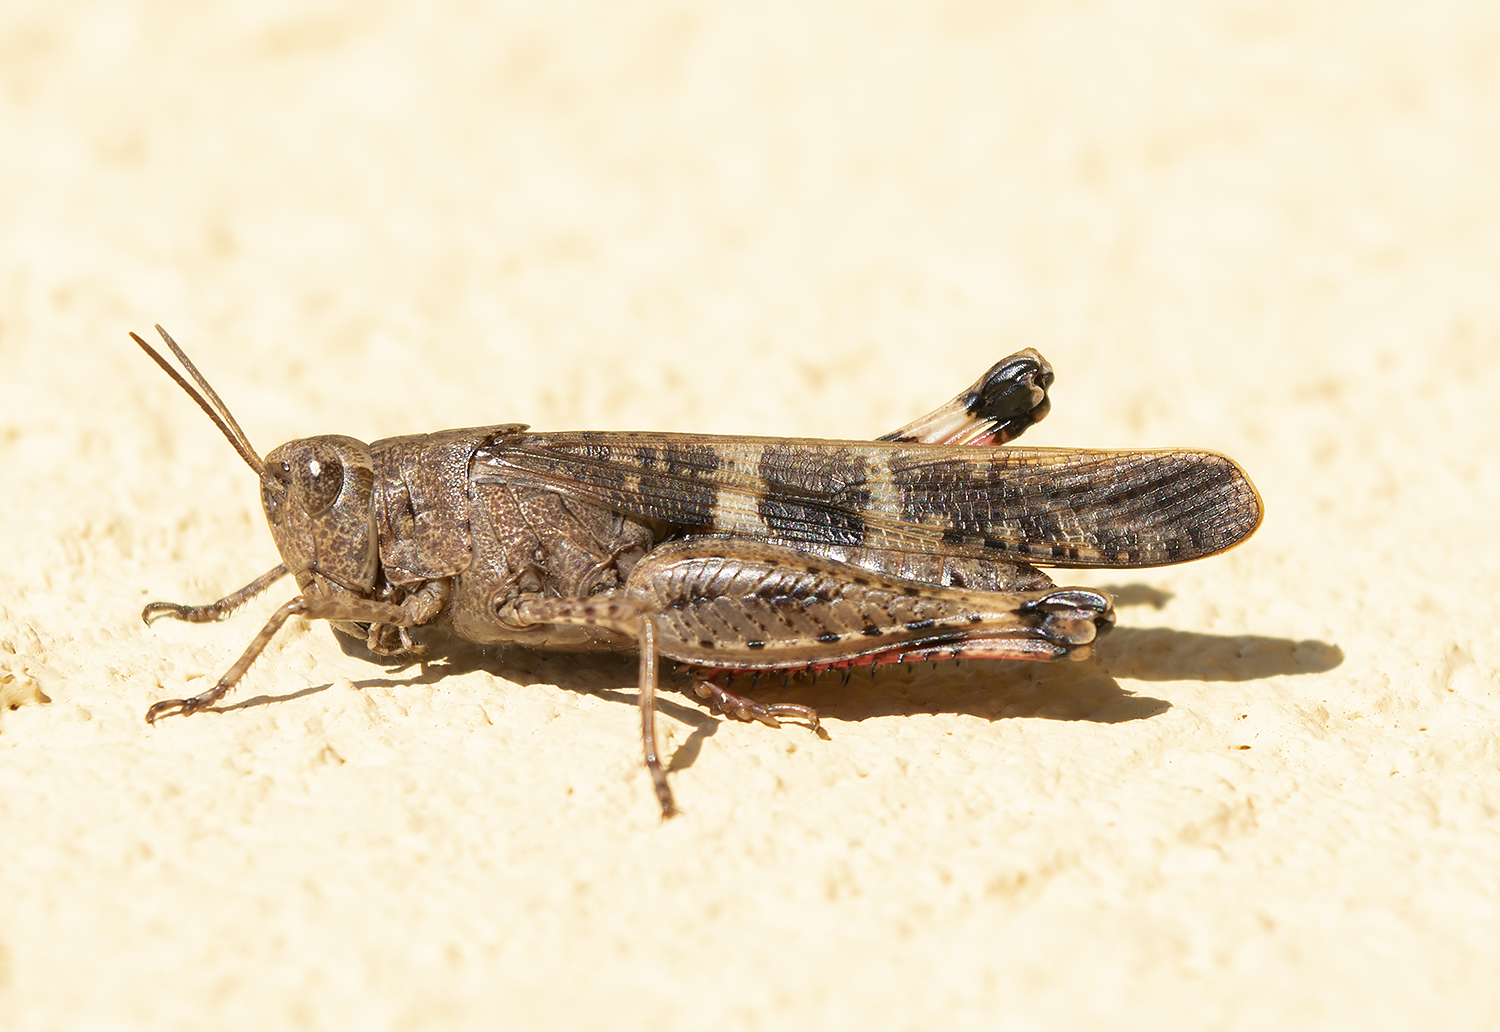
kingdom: Animalia
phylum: Arthropoda
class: Insecta
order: Orthoptera
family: Acrididae
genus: Aiolopus
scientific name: Aiolopus strepens
